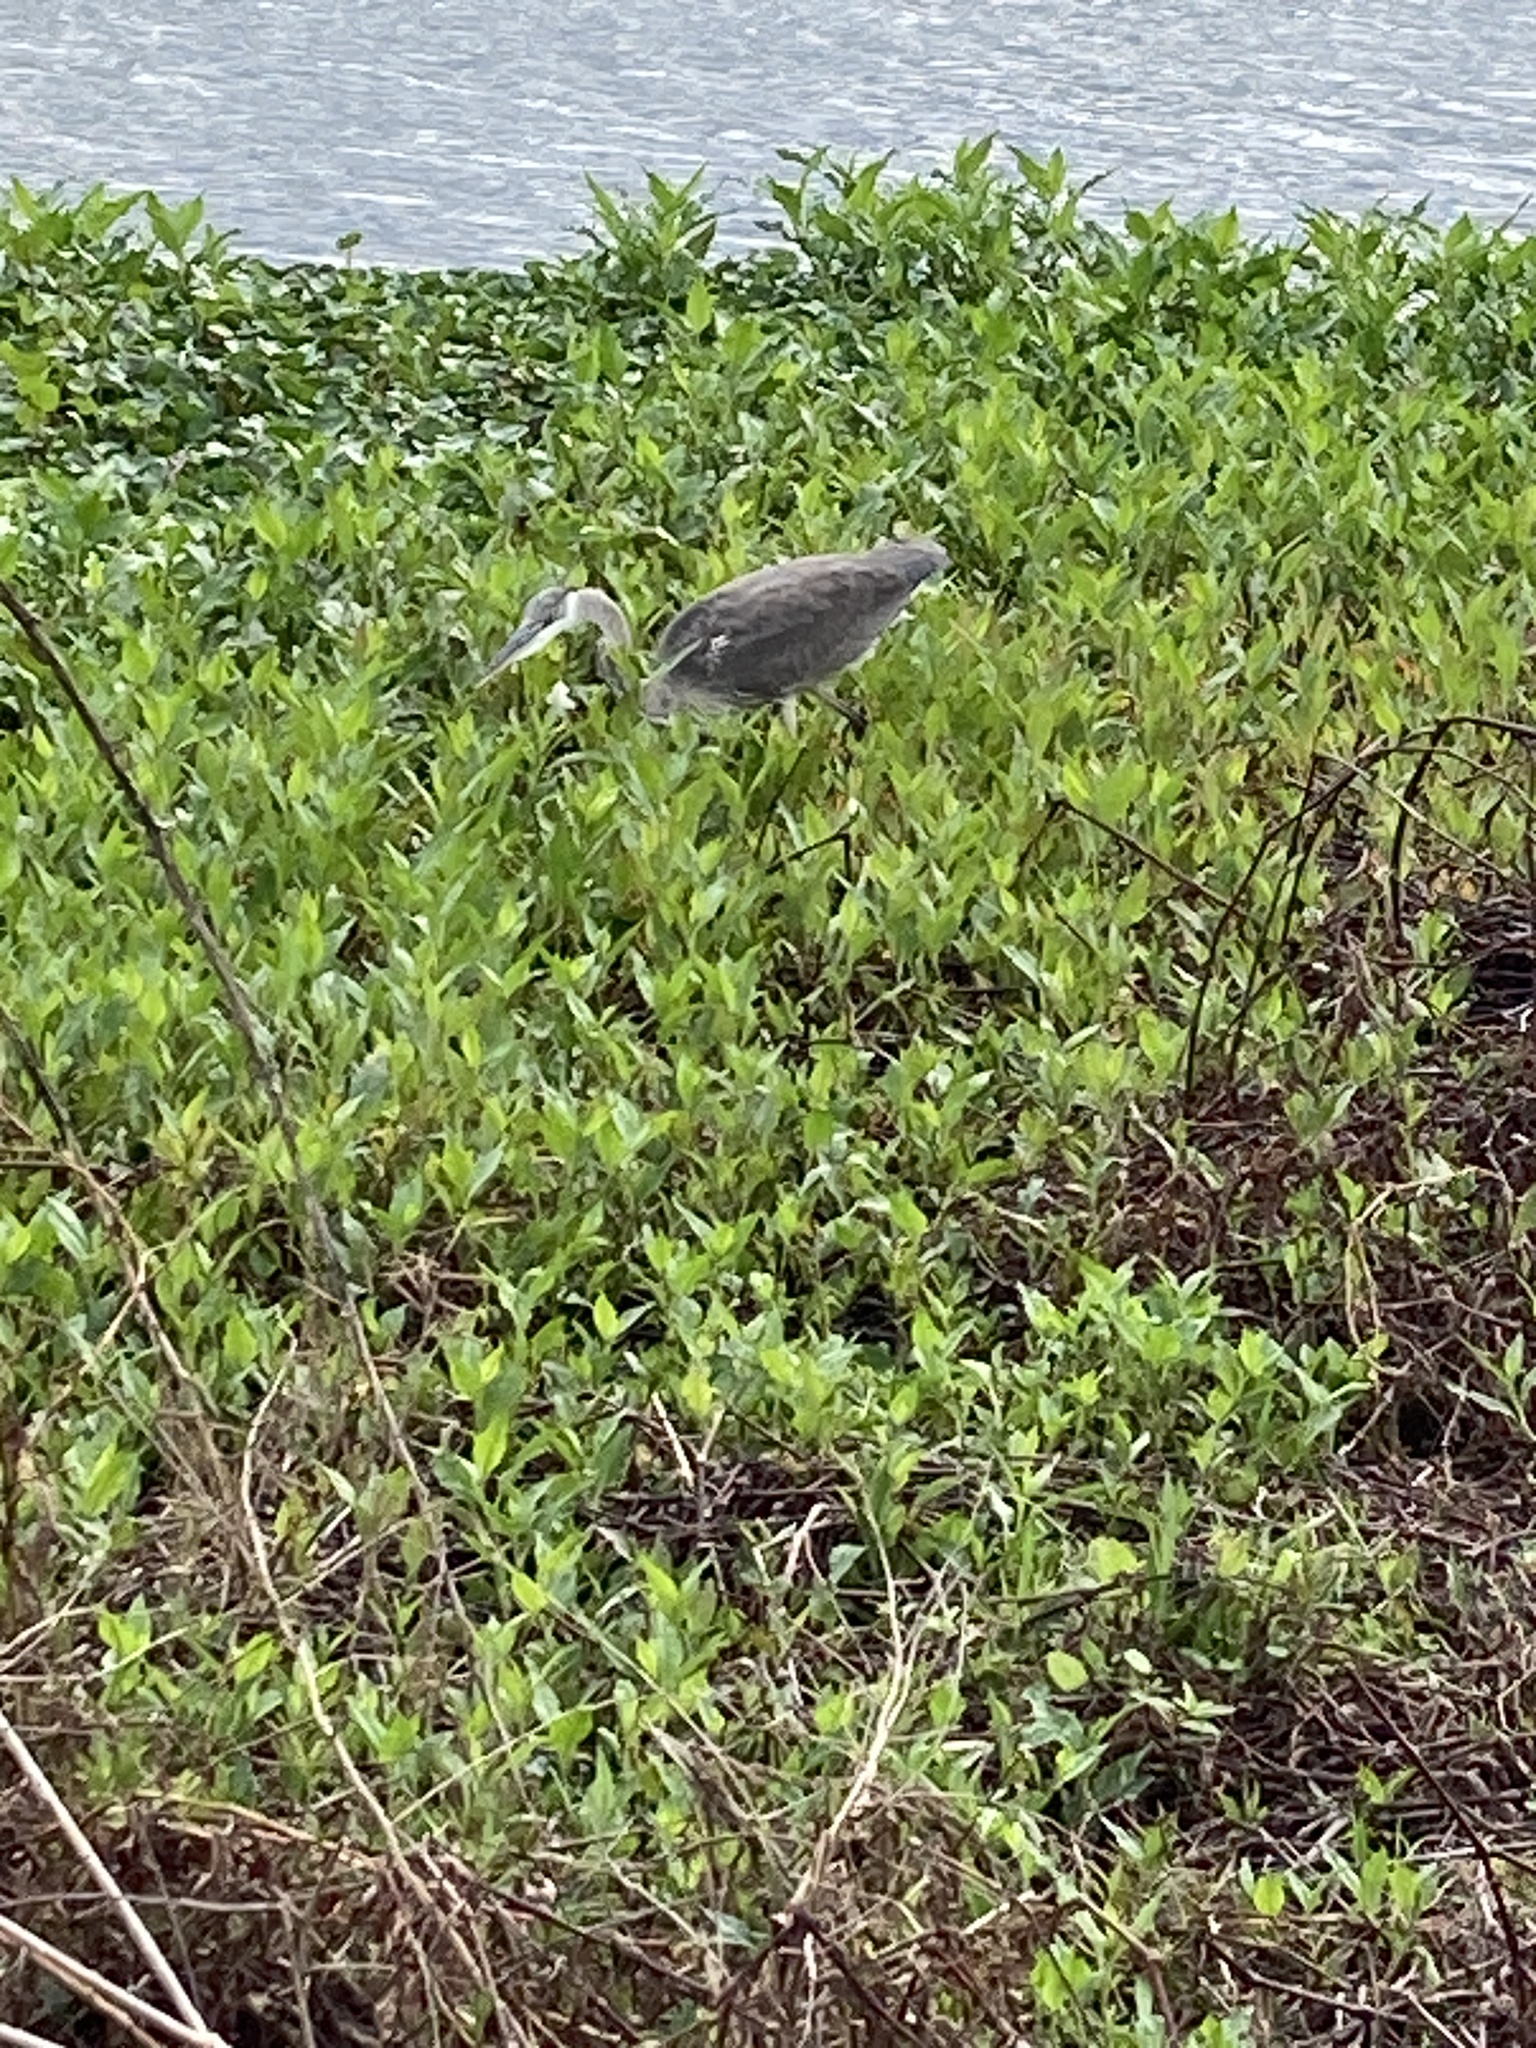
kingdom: Animalia
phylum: Chordata
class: Aves
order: Pelecaniformes
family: Ardeidae
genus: Ardea
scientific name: Ardea herodias
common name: Great blue heron
